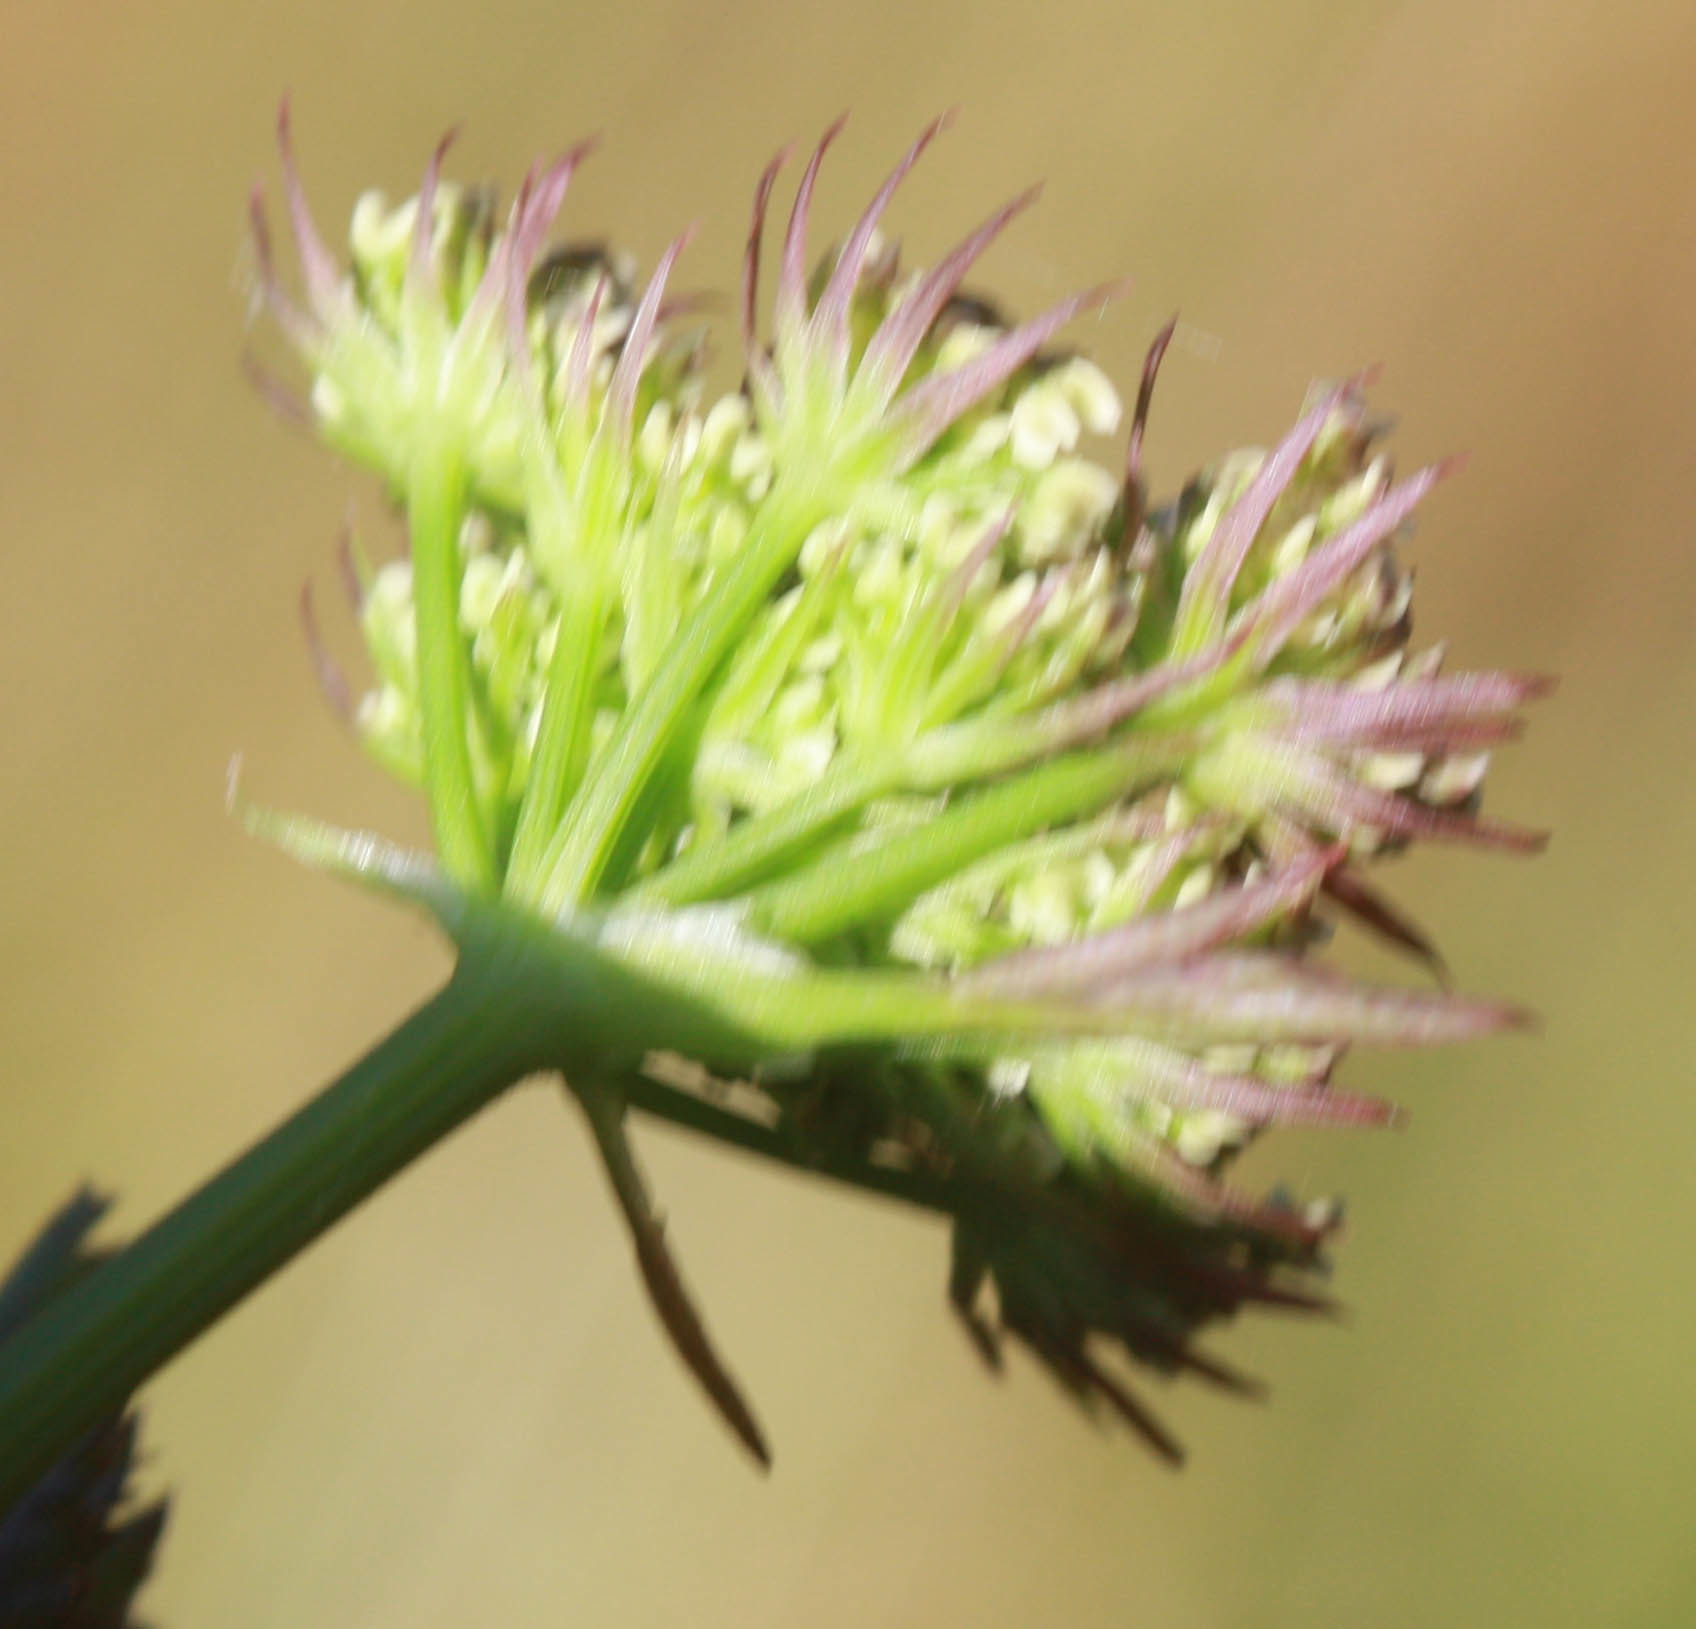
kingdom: Plantae
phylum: Tracheophyta
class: Magnoliopsida
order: Apiales
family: Apiaceae
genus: Oenanthe
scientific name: Oenanthe sarmentosa
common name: American water-parsley
